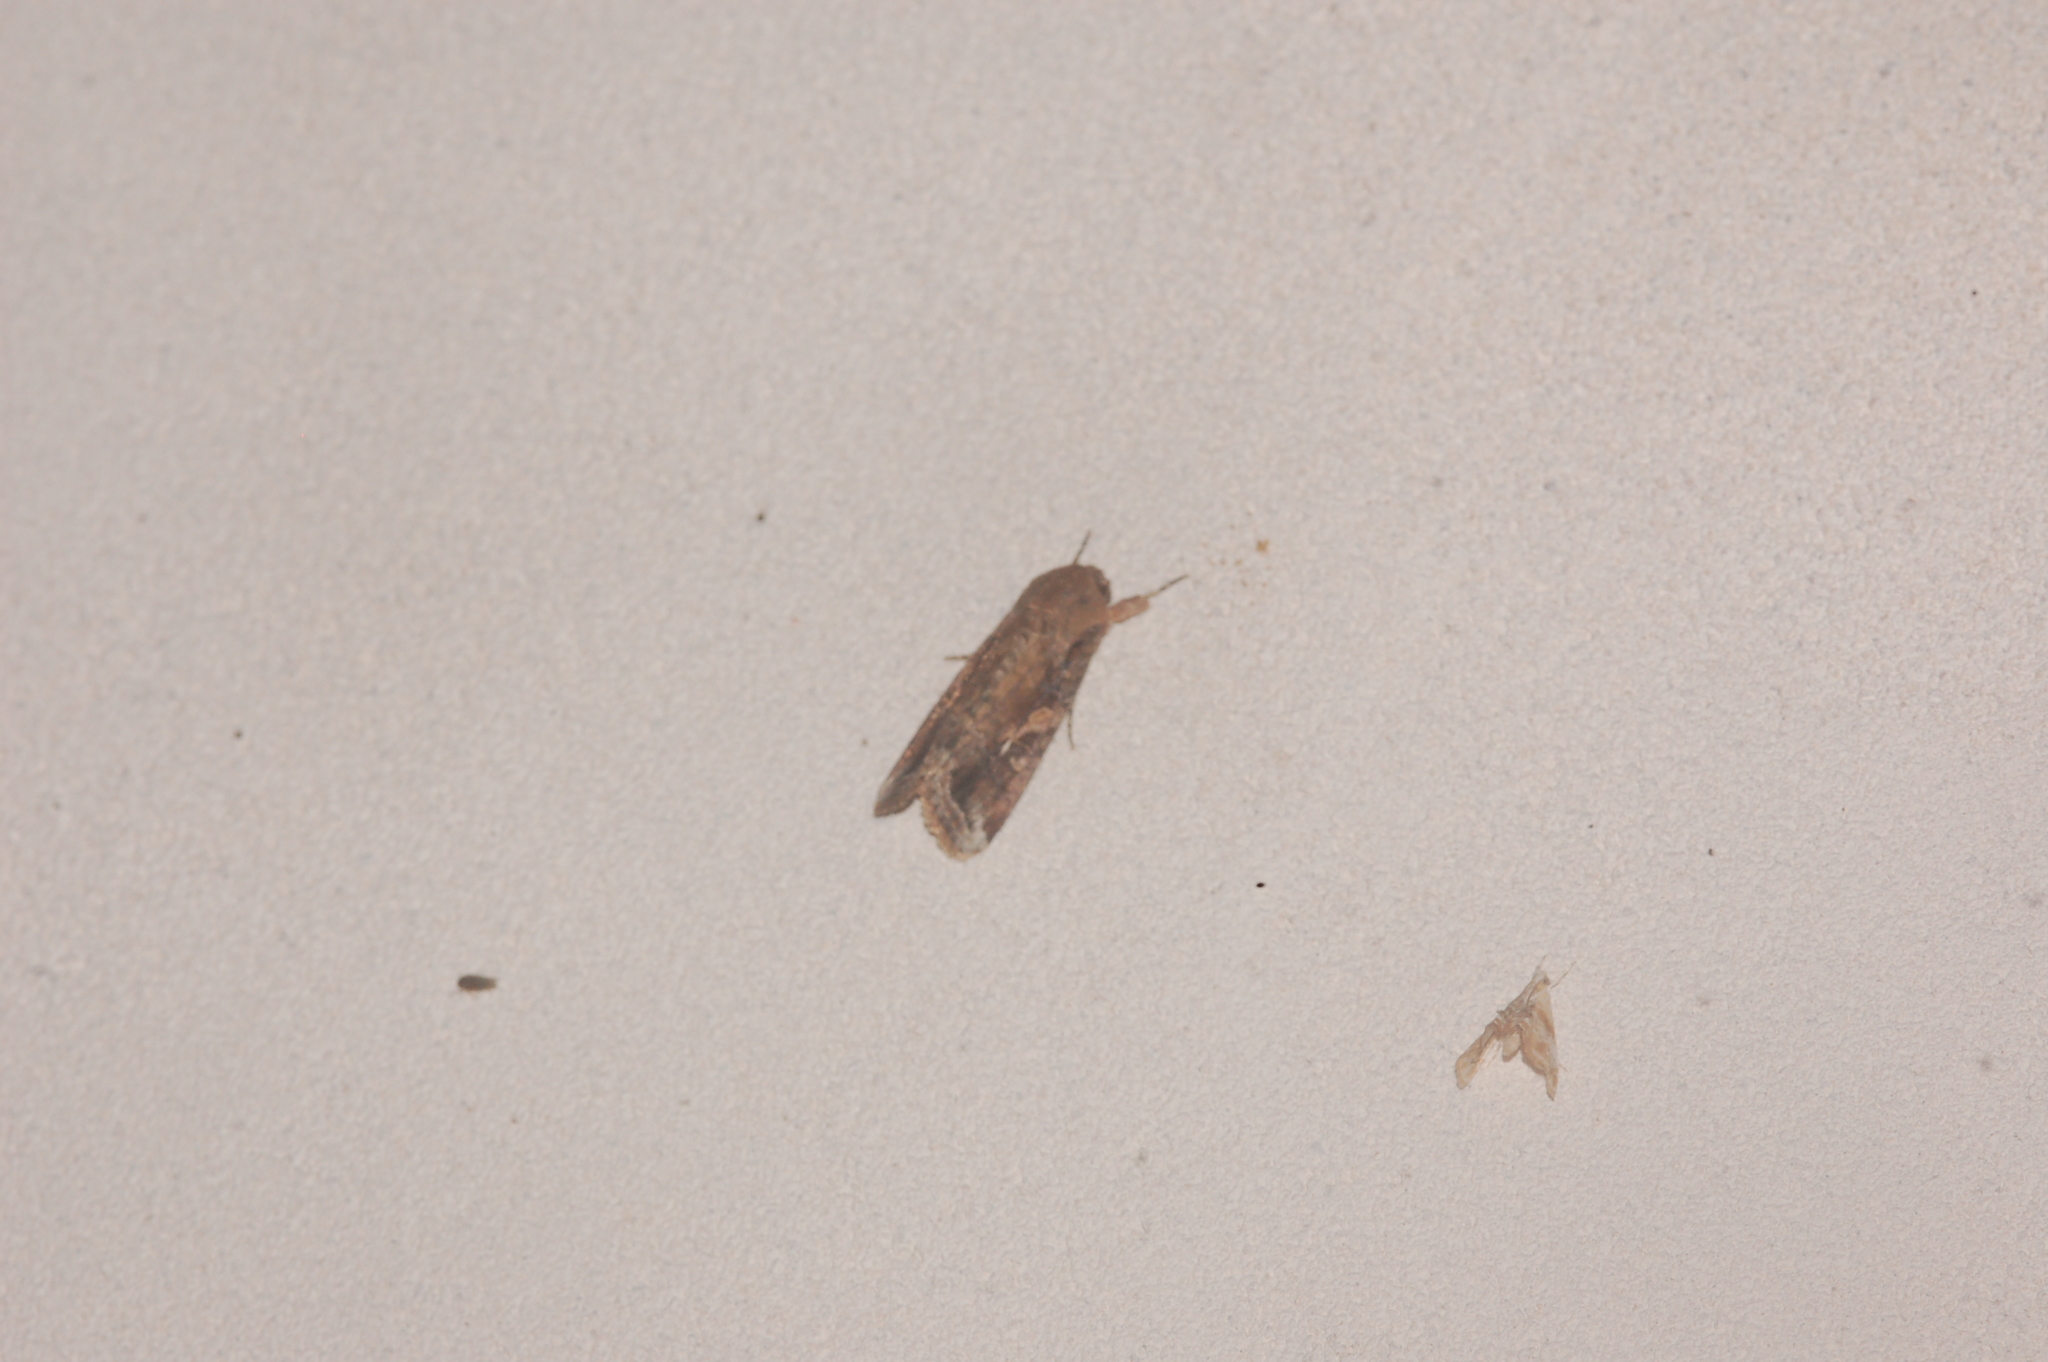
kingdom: Animalia
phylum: Arthropoda
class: Insecta
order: Lepidoptera
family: Noctuidae
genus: Spodoptera
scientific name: Spodoptera frugiperda
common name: Fall armyworm
